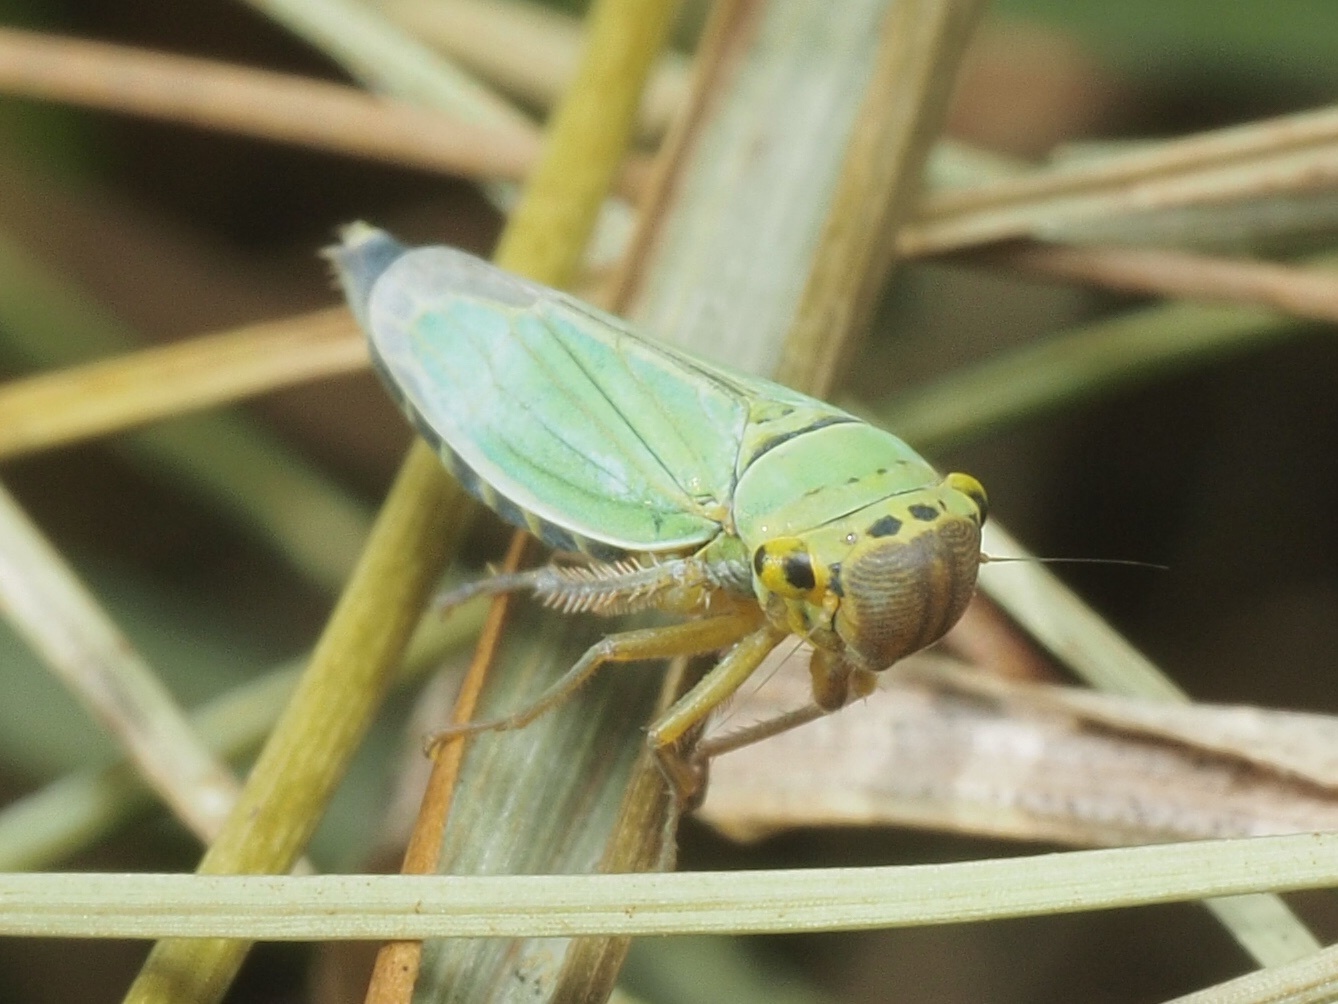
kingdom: Animalia
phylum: Arthropoda
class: Insecta
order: Hemiptera
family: Cicadellidae
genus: Cicadella
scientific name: Cicadella viridis
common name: Leafhopper
